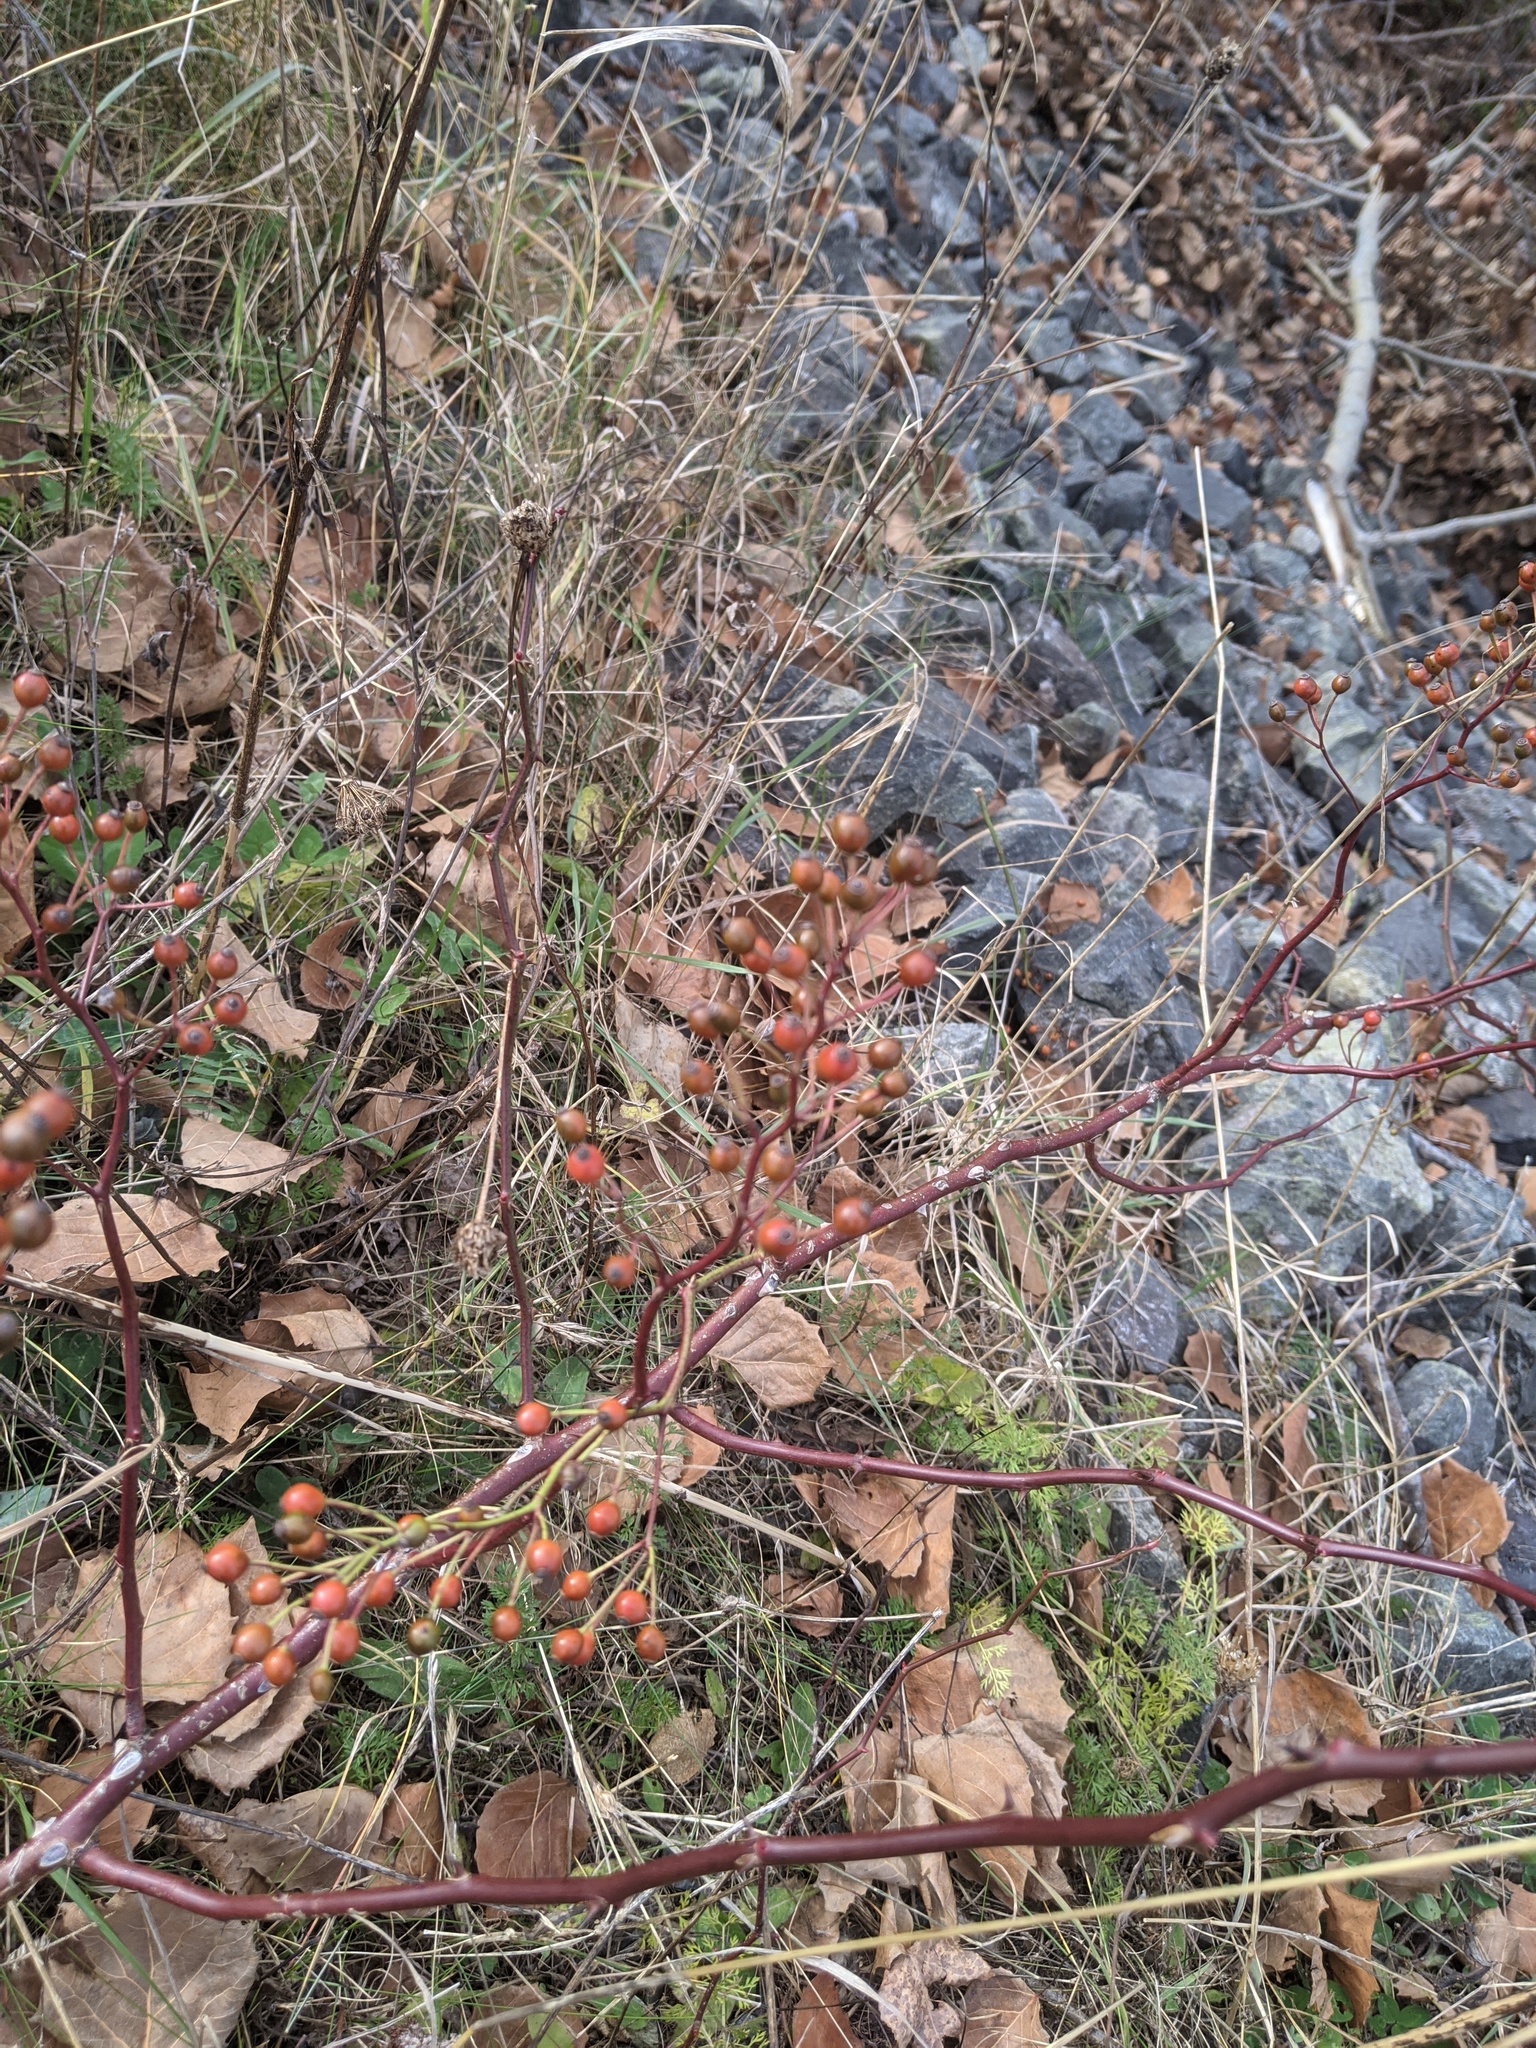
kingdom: Plantae
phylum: Tracheophyta
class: Magnoliopsida
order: Rosales
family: Rosaceae
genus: Rosa
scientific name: Rosa multiflora
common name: Multiflora rose
